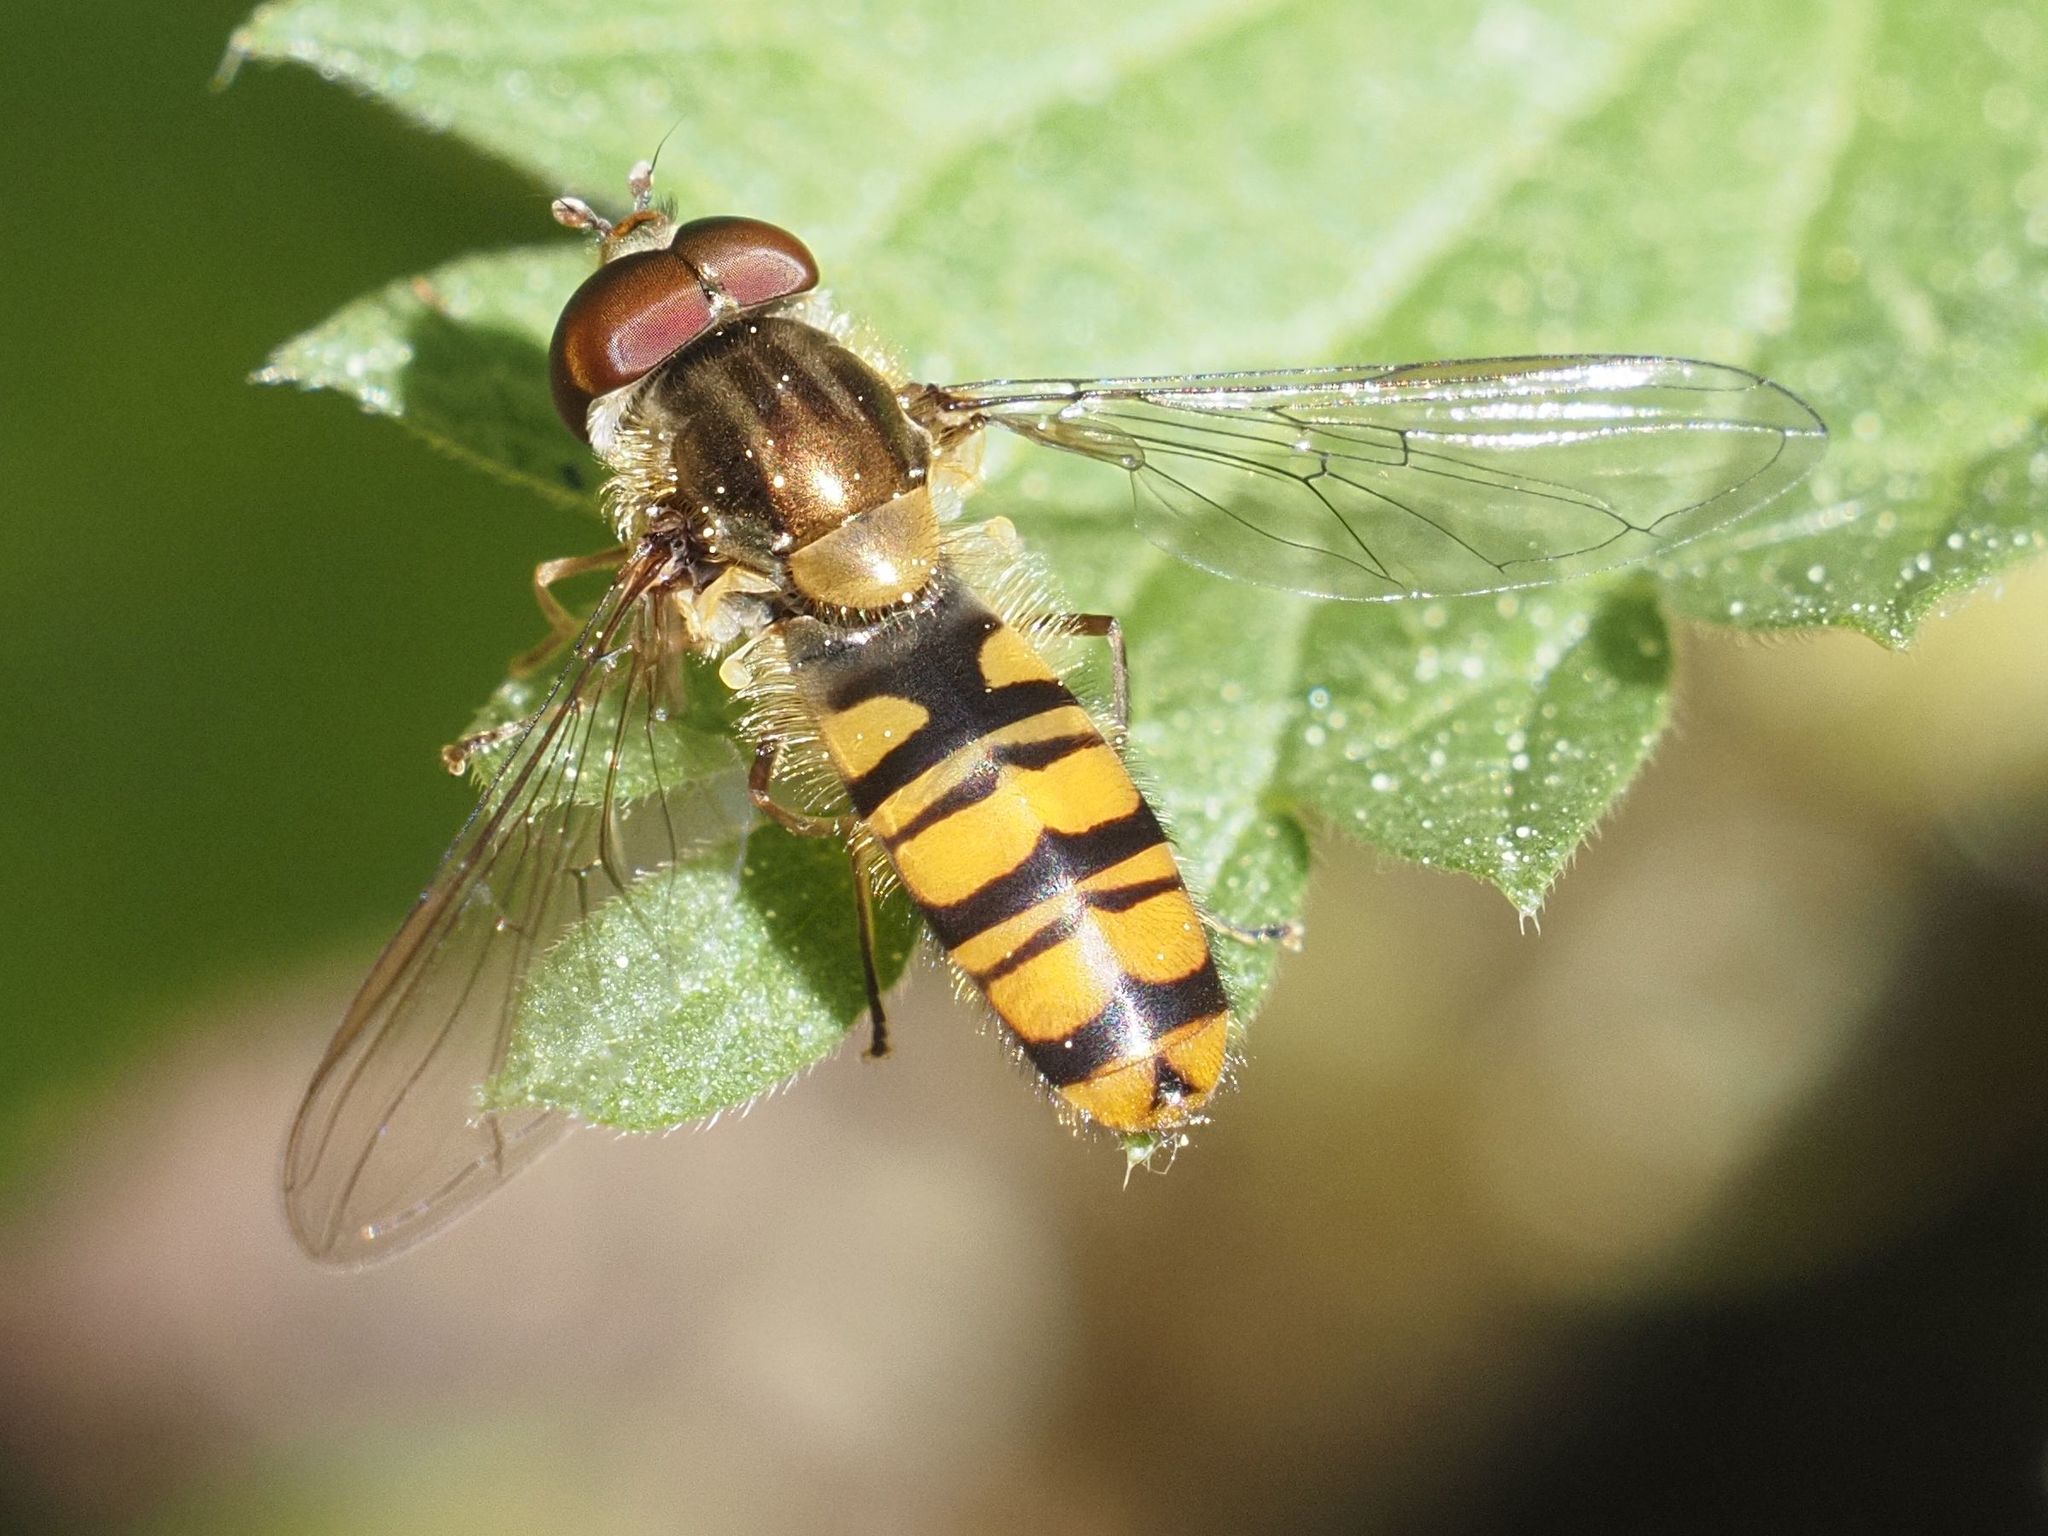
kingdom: Animalia
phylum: Arthropoda
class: Insecta
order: Diptera
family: Syrphidae
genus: Episyrphus
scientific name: Episyrphus balteatus
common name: Marmalade hoverfly
